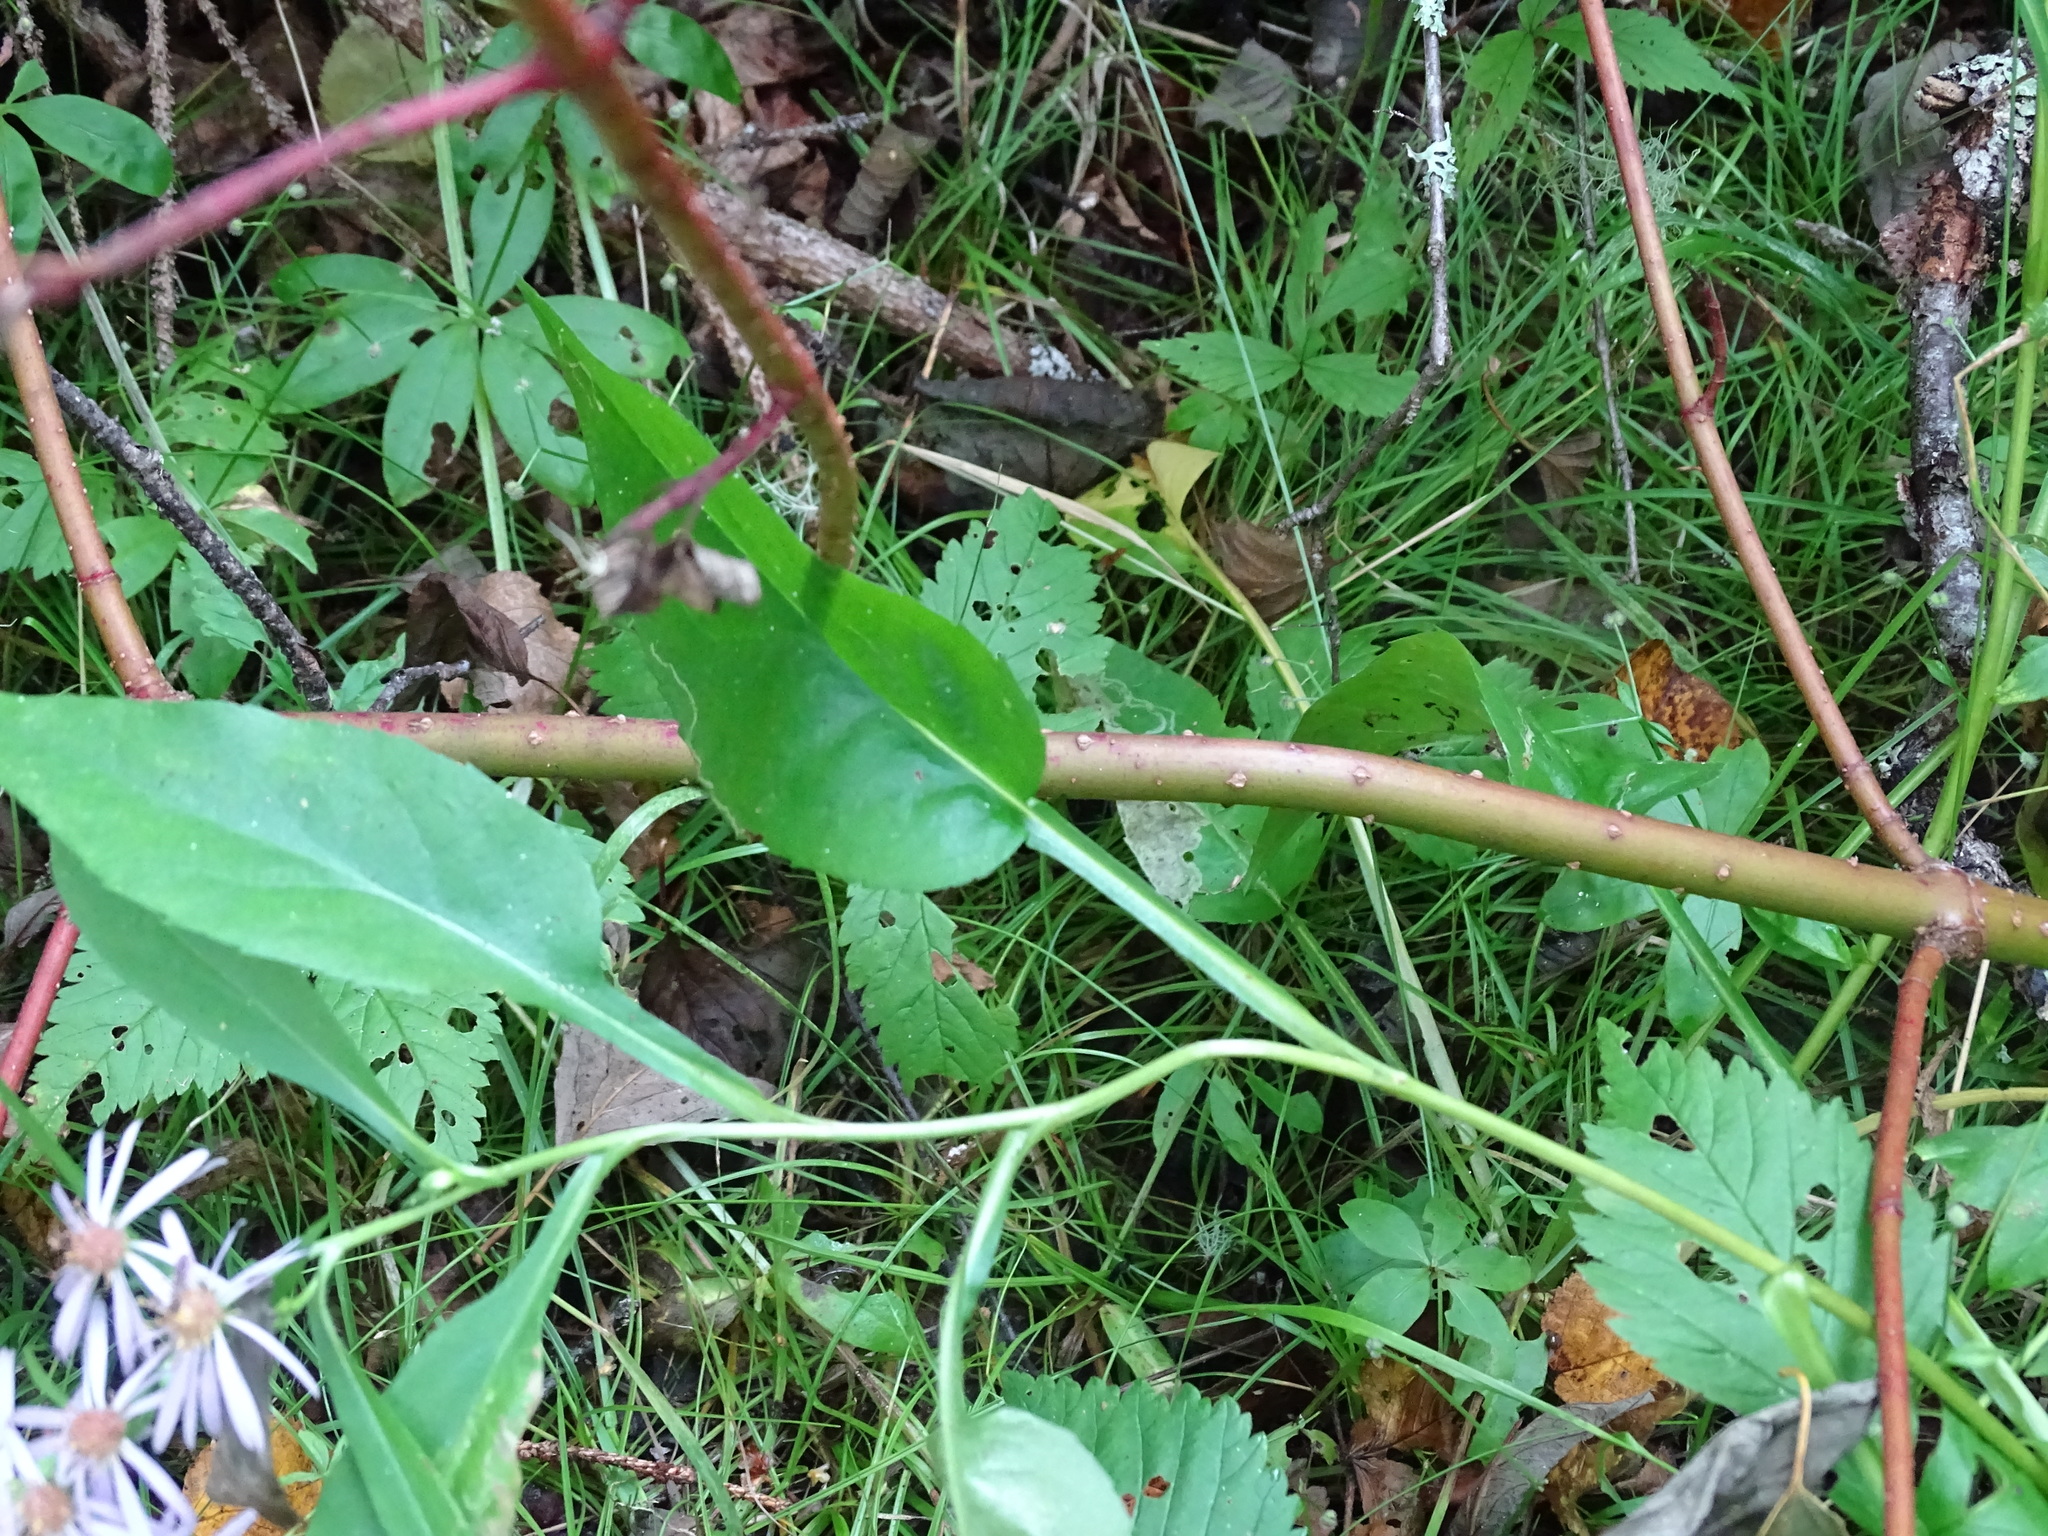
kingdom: Plantae
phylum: Tracheophyta
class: Magnoliopsida
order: Asterales
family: Asteraceae
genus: Symphyotrichum
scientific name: Symphyotrichum ciliolatum
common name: Fringed blue aster
